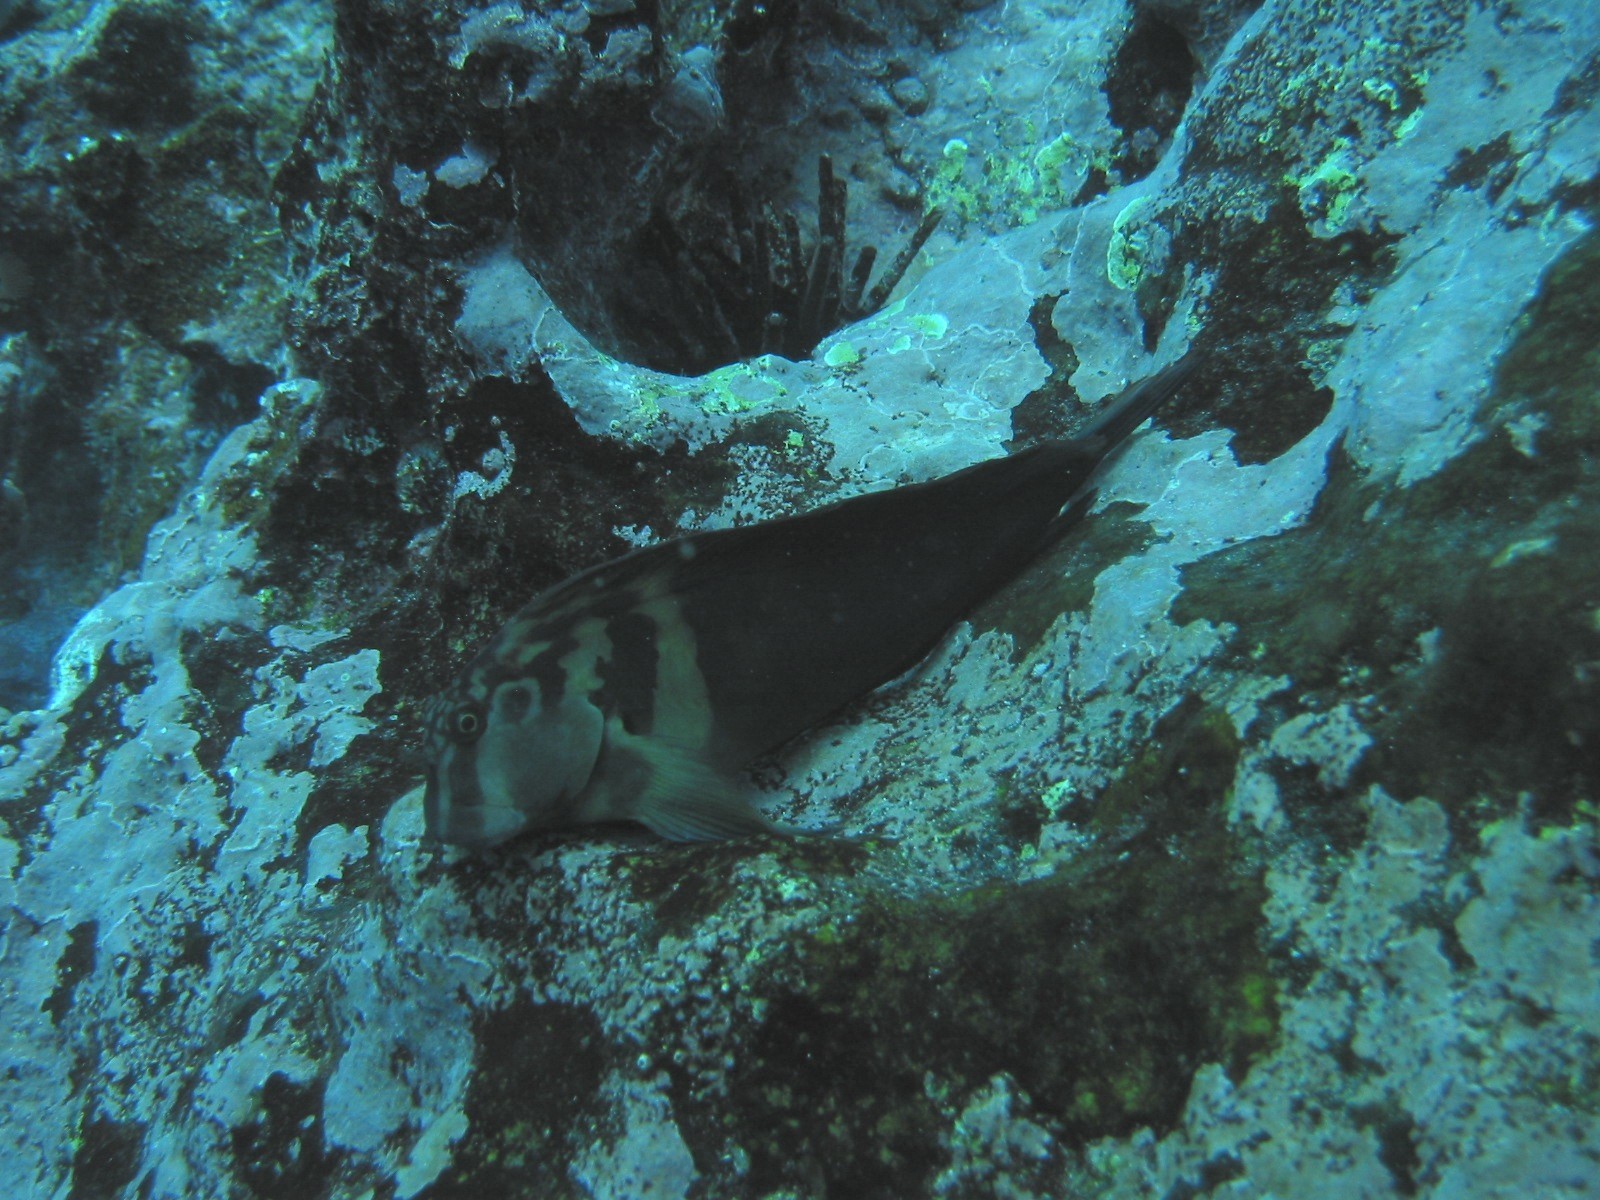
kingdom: Animalia
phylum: Chordata
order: Perciformes
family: Blenniidae
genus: Ophioblennius
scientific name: Ophioblennius steindachneri
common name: Panamic fanged blenny
